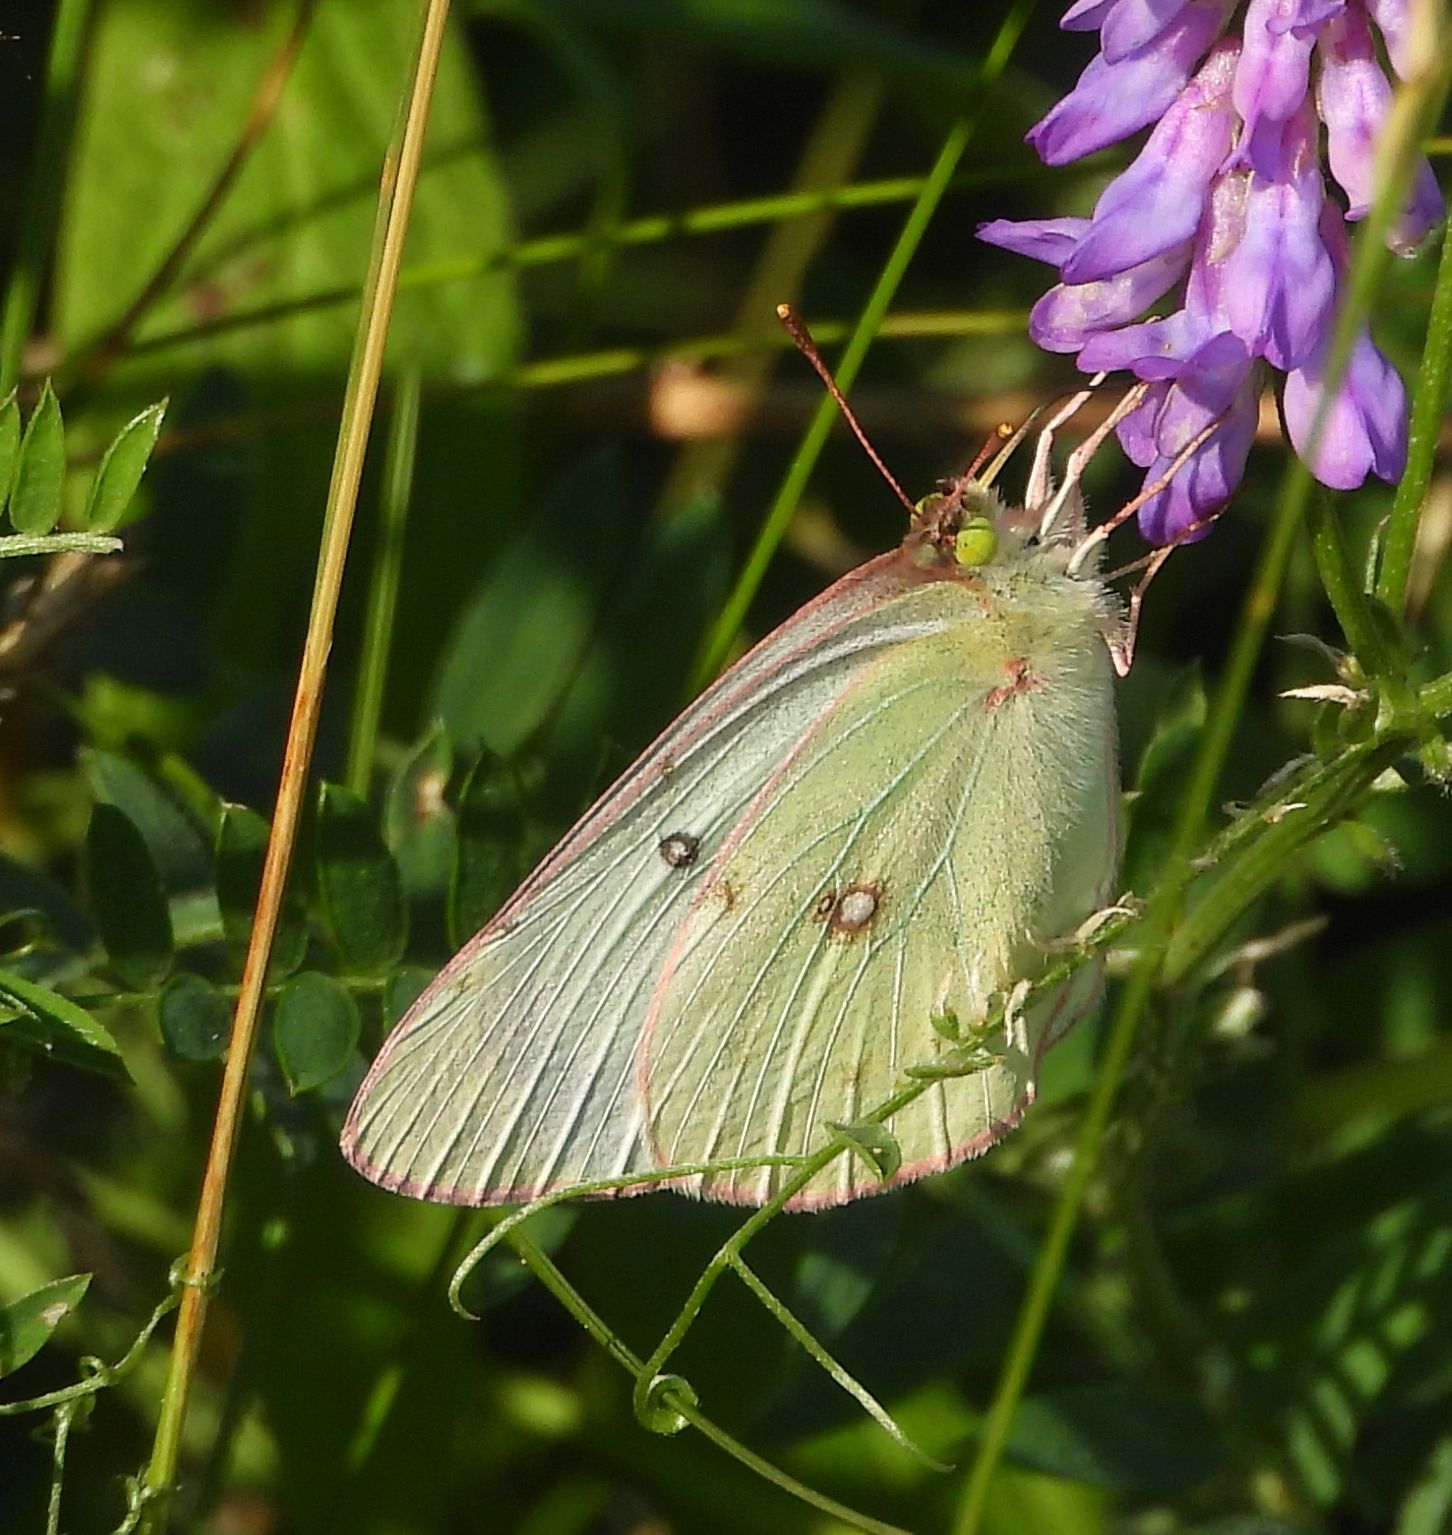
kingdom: Animalia
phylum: Arthropoda
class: Insecta
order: Lepidoptera
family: Pieridae
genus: Colias
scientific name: Colias philodice
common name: Clouded sulphur
